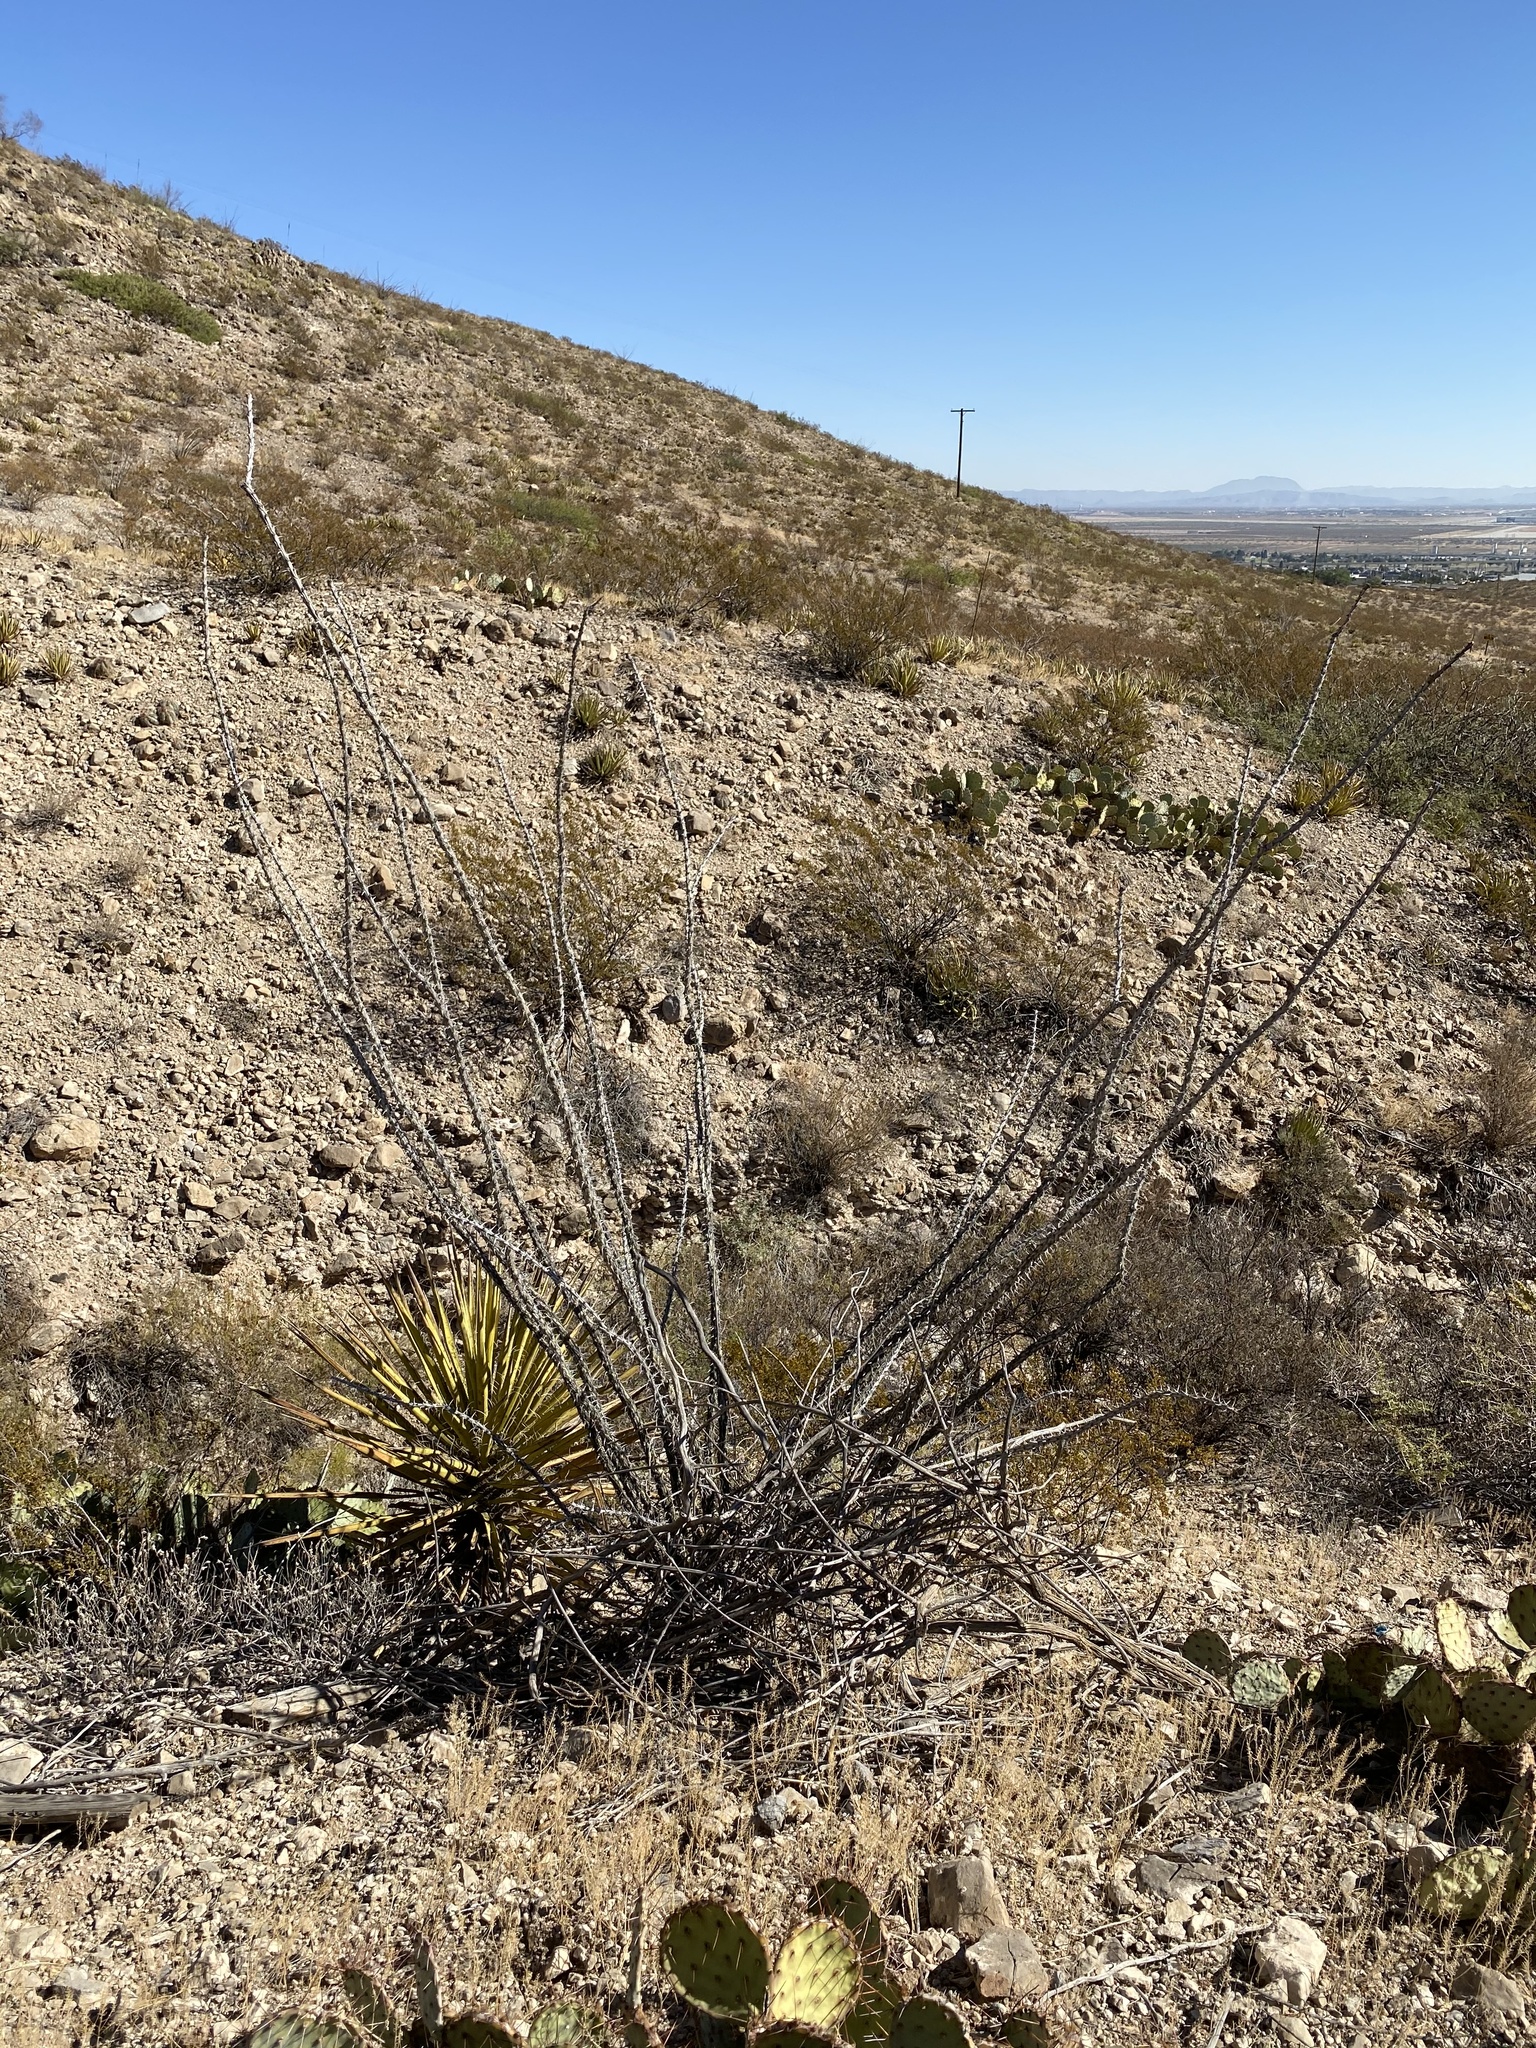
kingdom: Plantae
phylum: Tracheophyta
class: Magnoliopsida
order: Ericales
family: Fouquieriaceae
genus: Fouquieria
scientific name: Fouquieria splendens
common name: Vine-cactus
